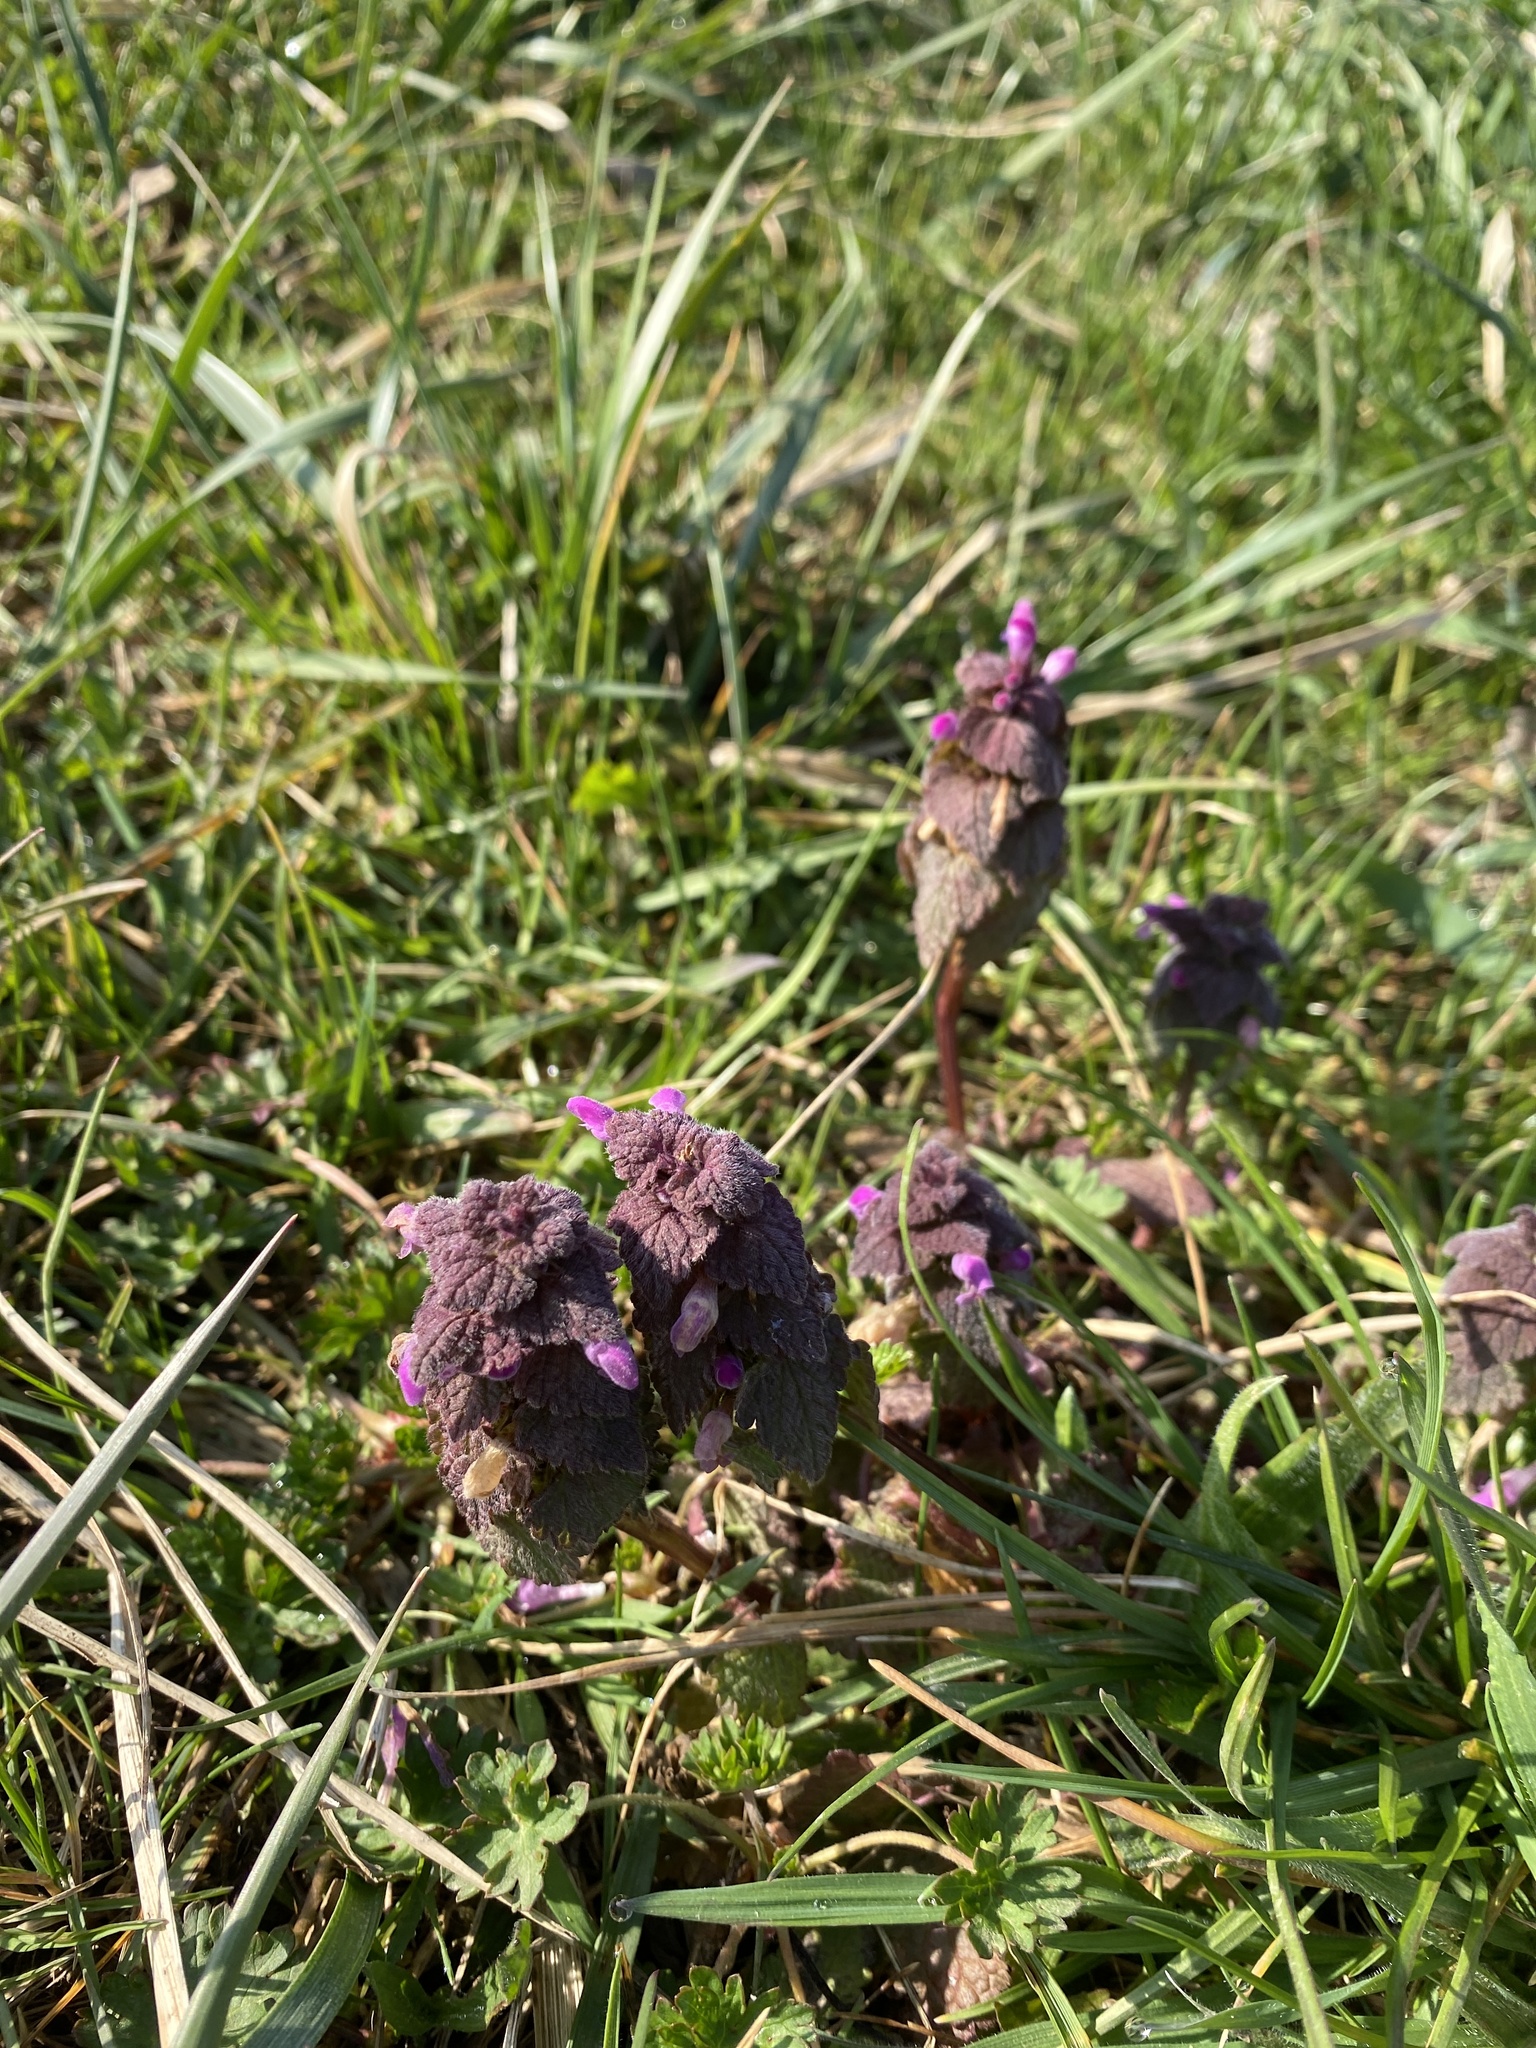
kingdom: Plantae
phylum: Tracheophyta
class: Magnoliopsida
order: Lamiales
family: Lamiaceae
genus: Lamium
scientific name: Lamium purpureum
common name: Red dead-nettle
